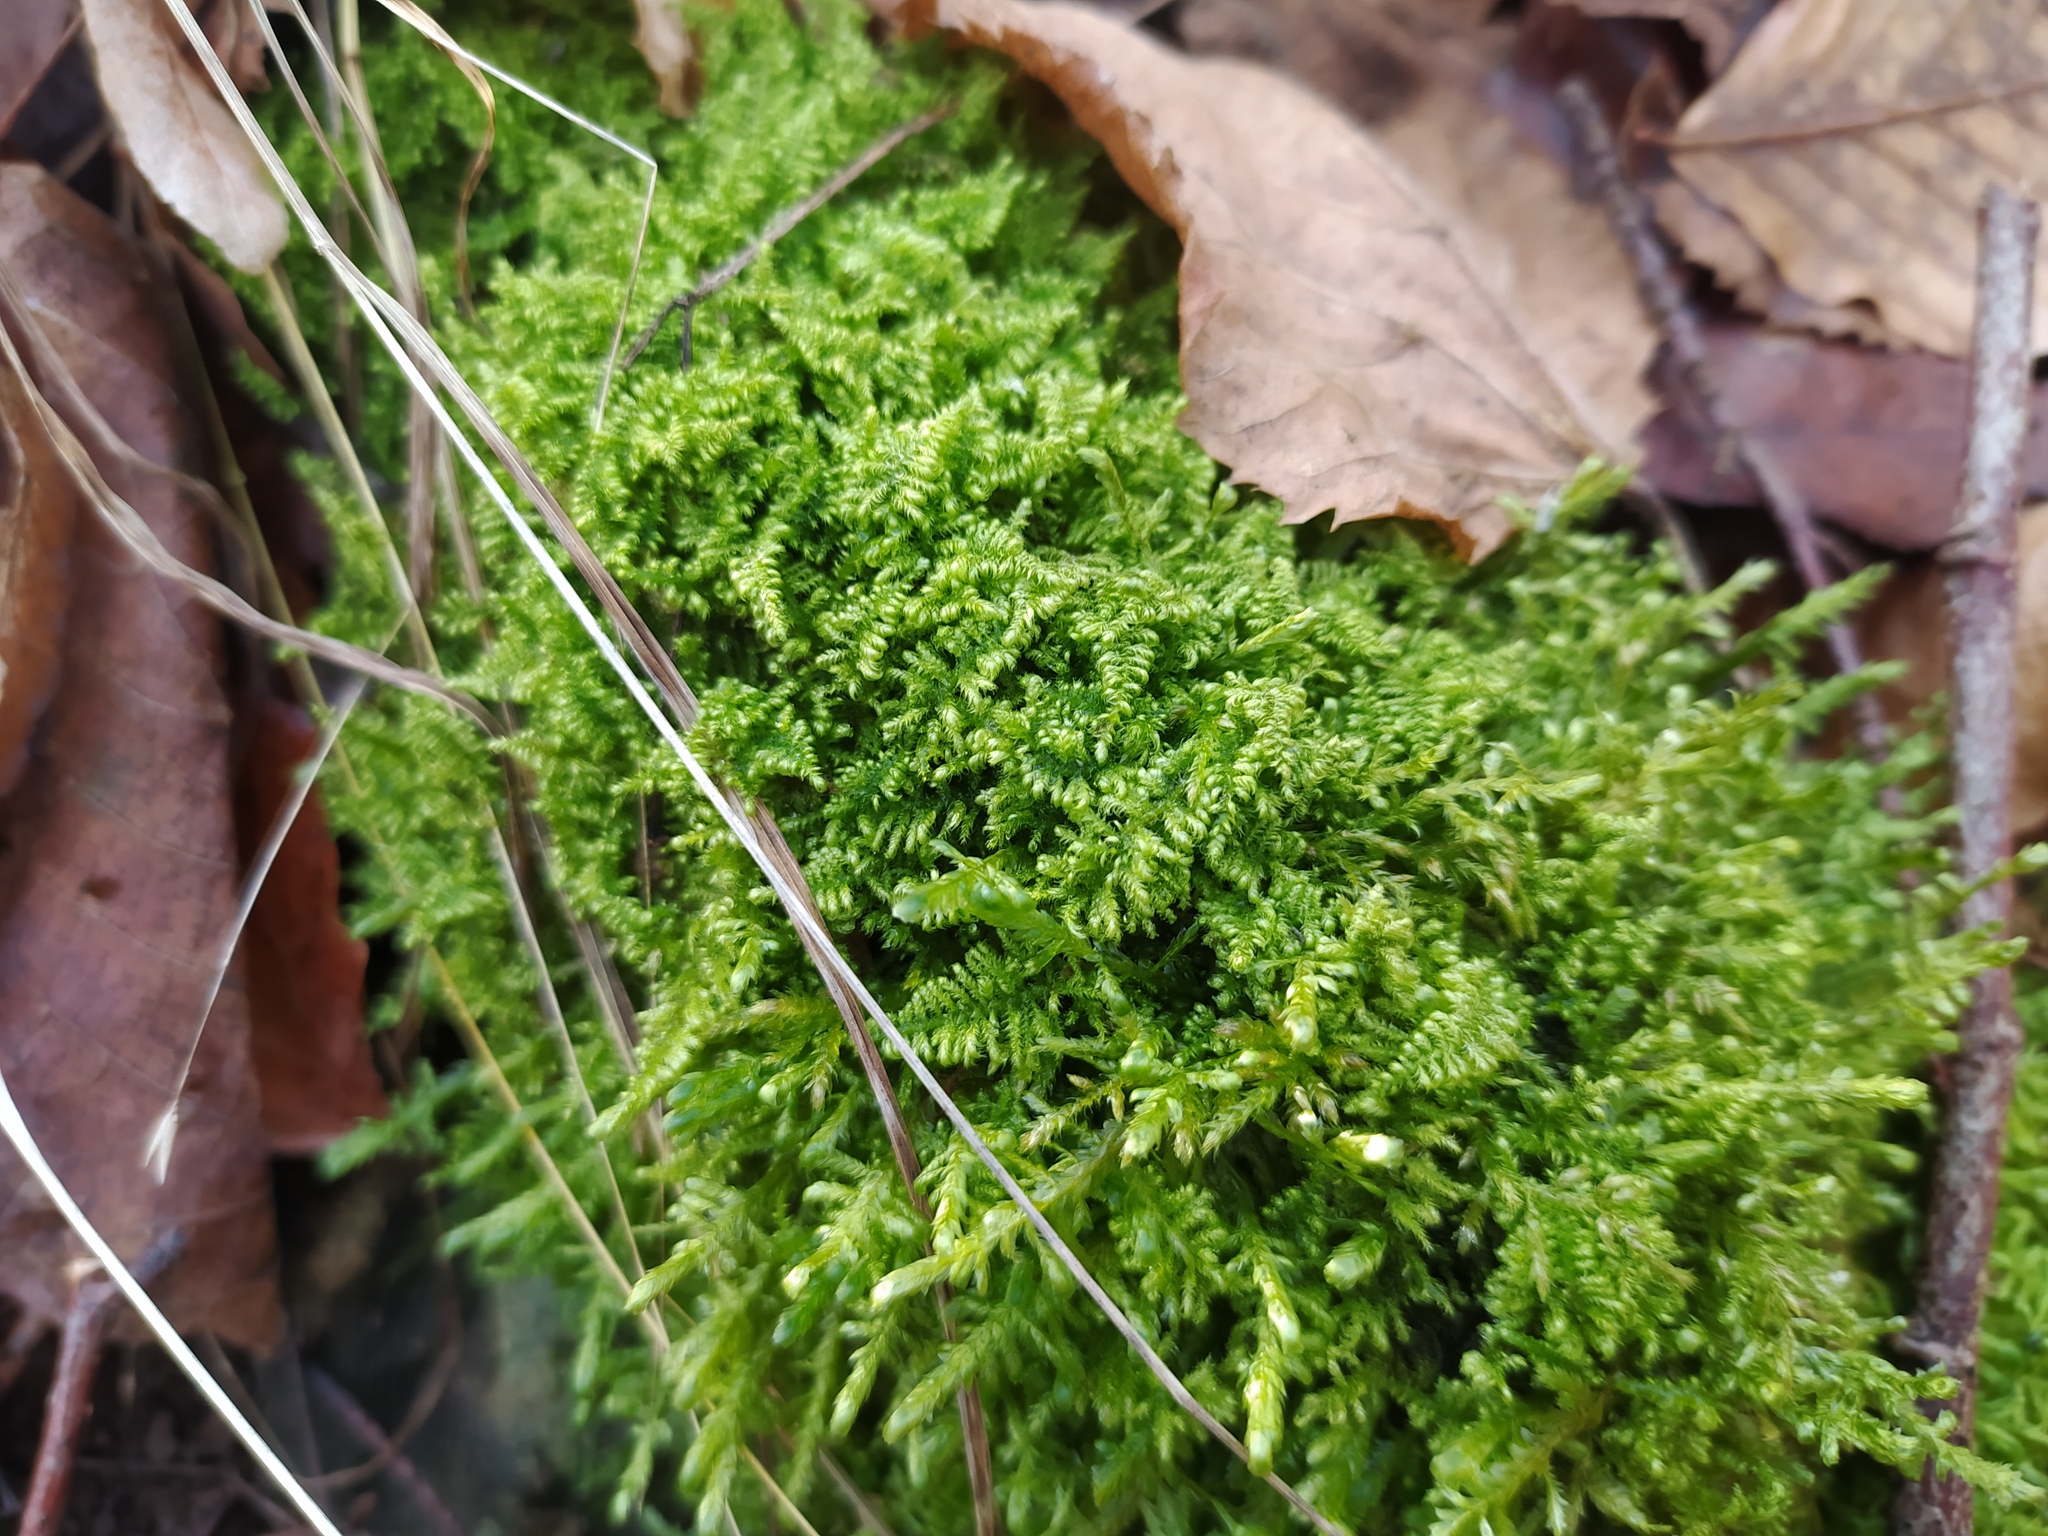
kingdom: Plantae
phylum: Bryophyta
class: Bryopsida
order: Hypnales
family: Myuriaceae
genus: Ctenidium
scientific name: Ctenidium molluscum
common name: Chalk comb-moss
